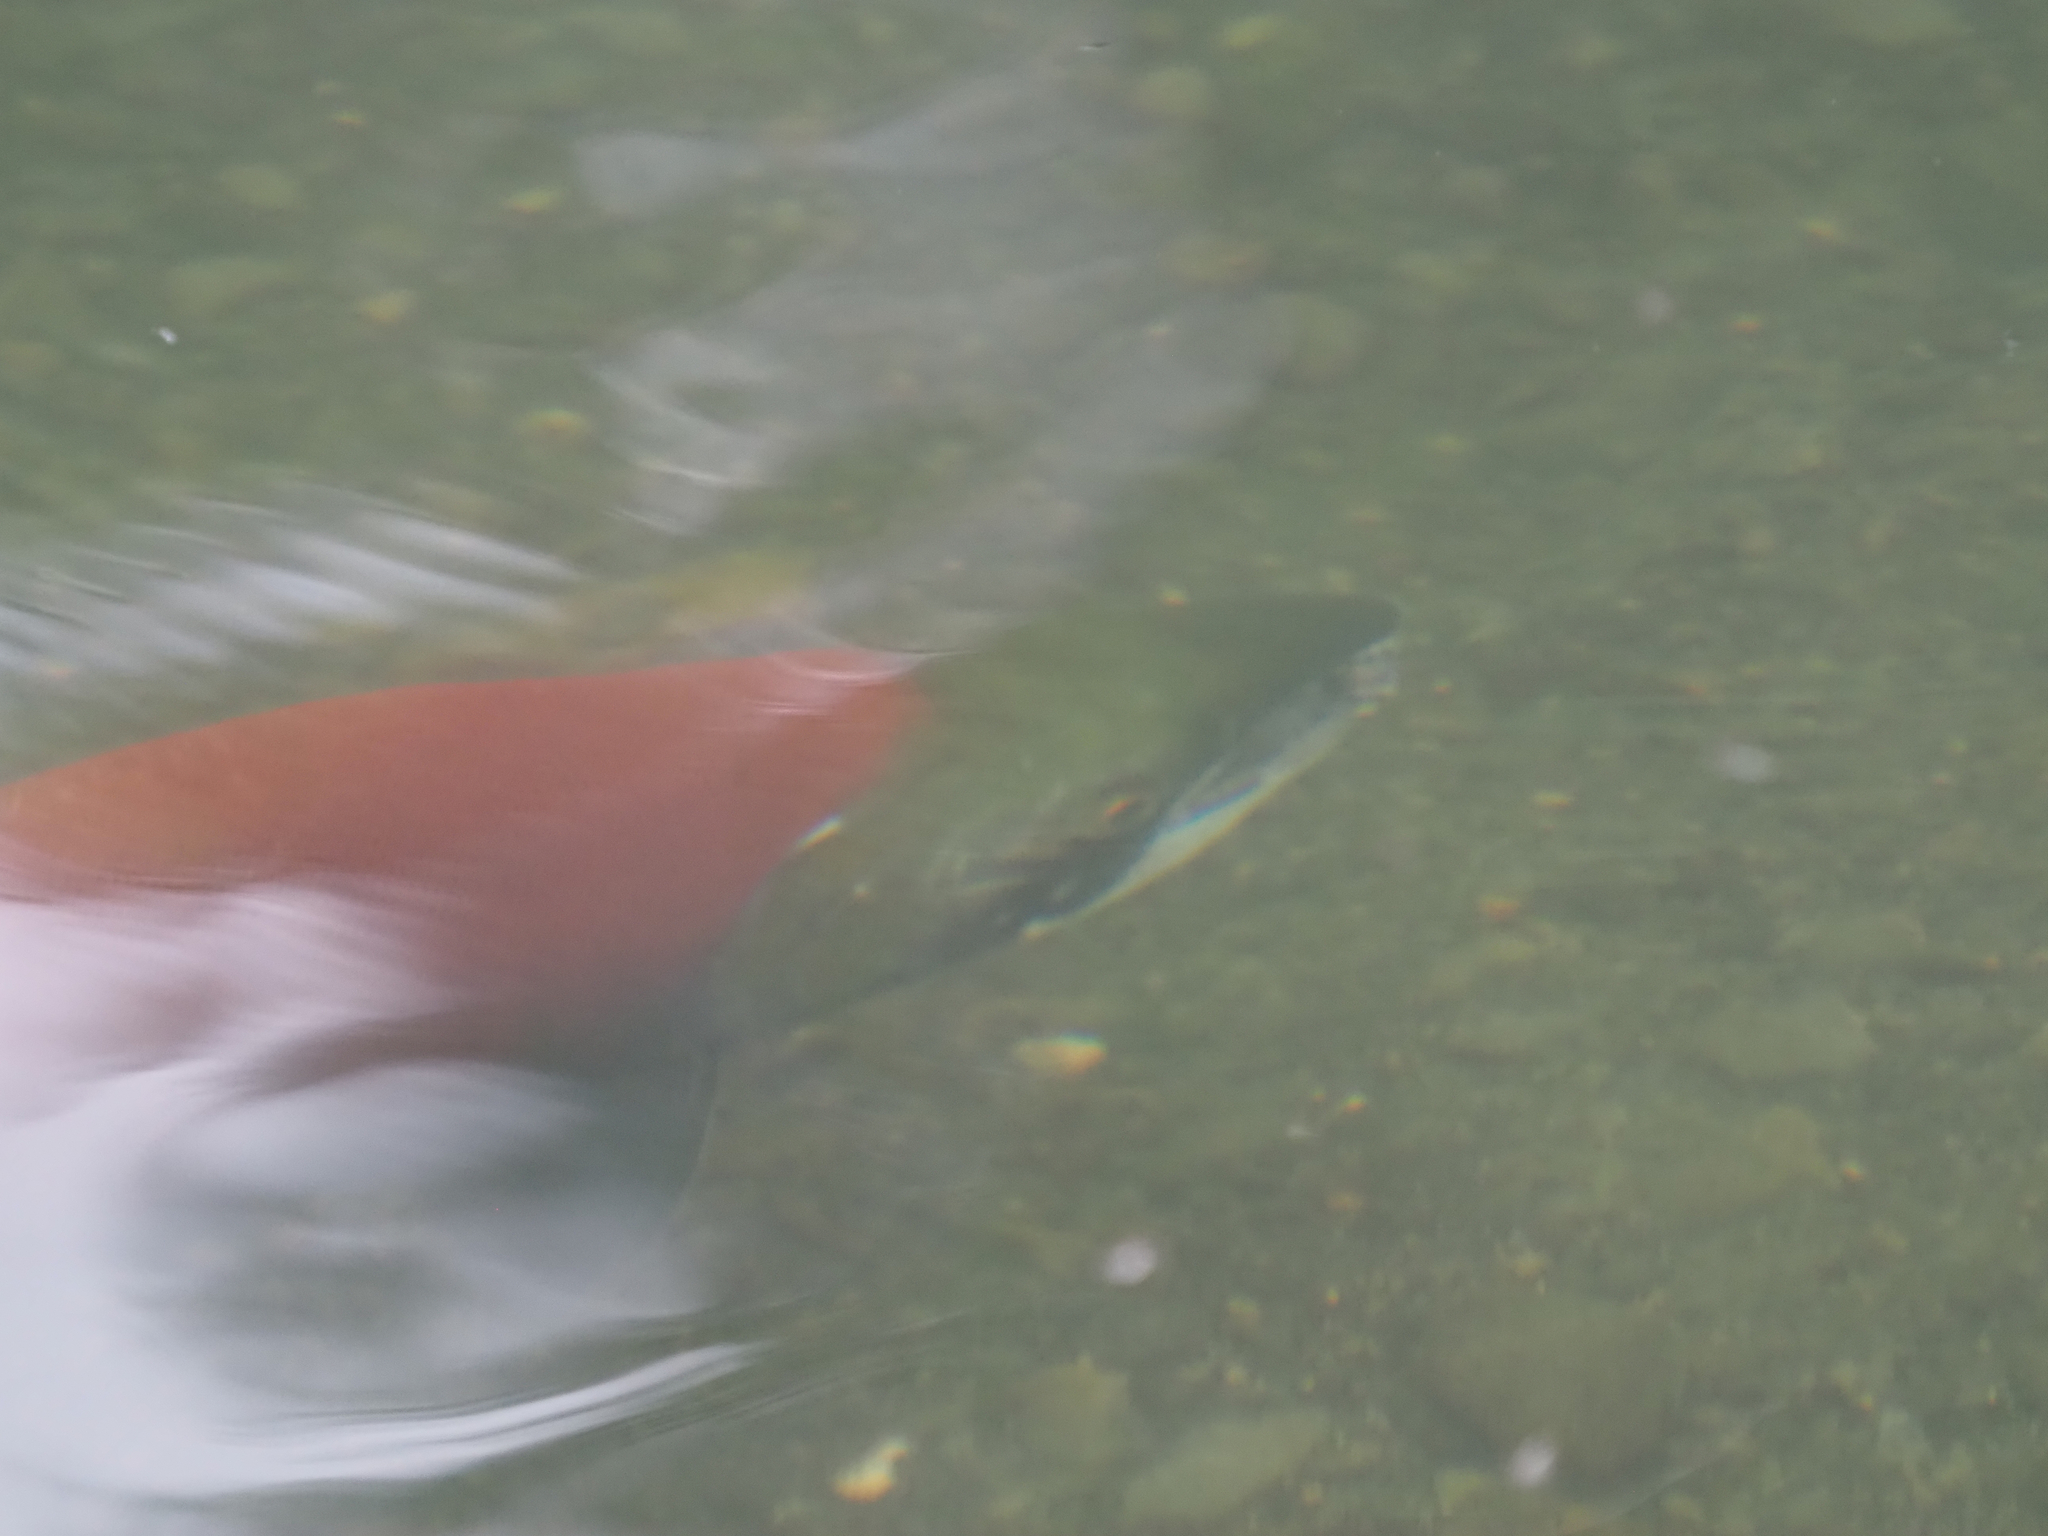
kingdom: Animalia
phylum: Chordata
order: Salmoniformes
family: Salmonidae
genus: Oncorhynchus
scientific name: Oncorhynchus nerka
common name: Sockeye salmon
